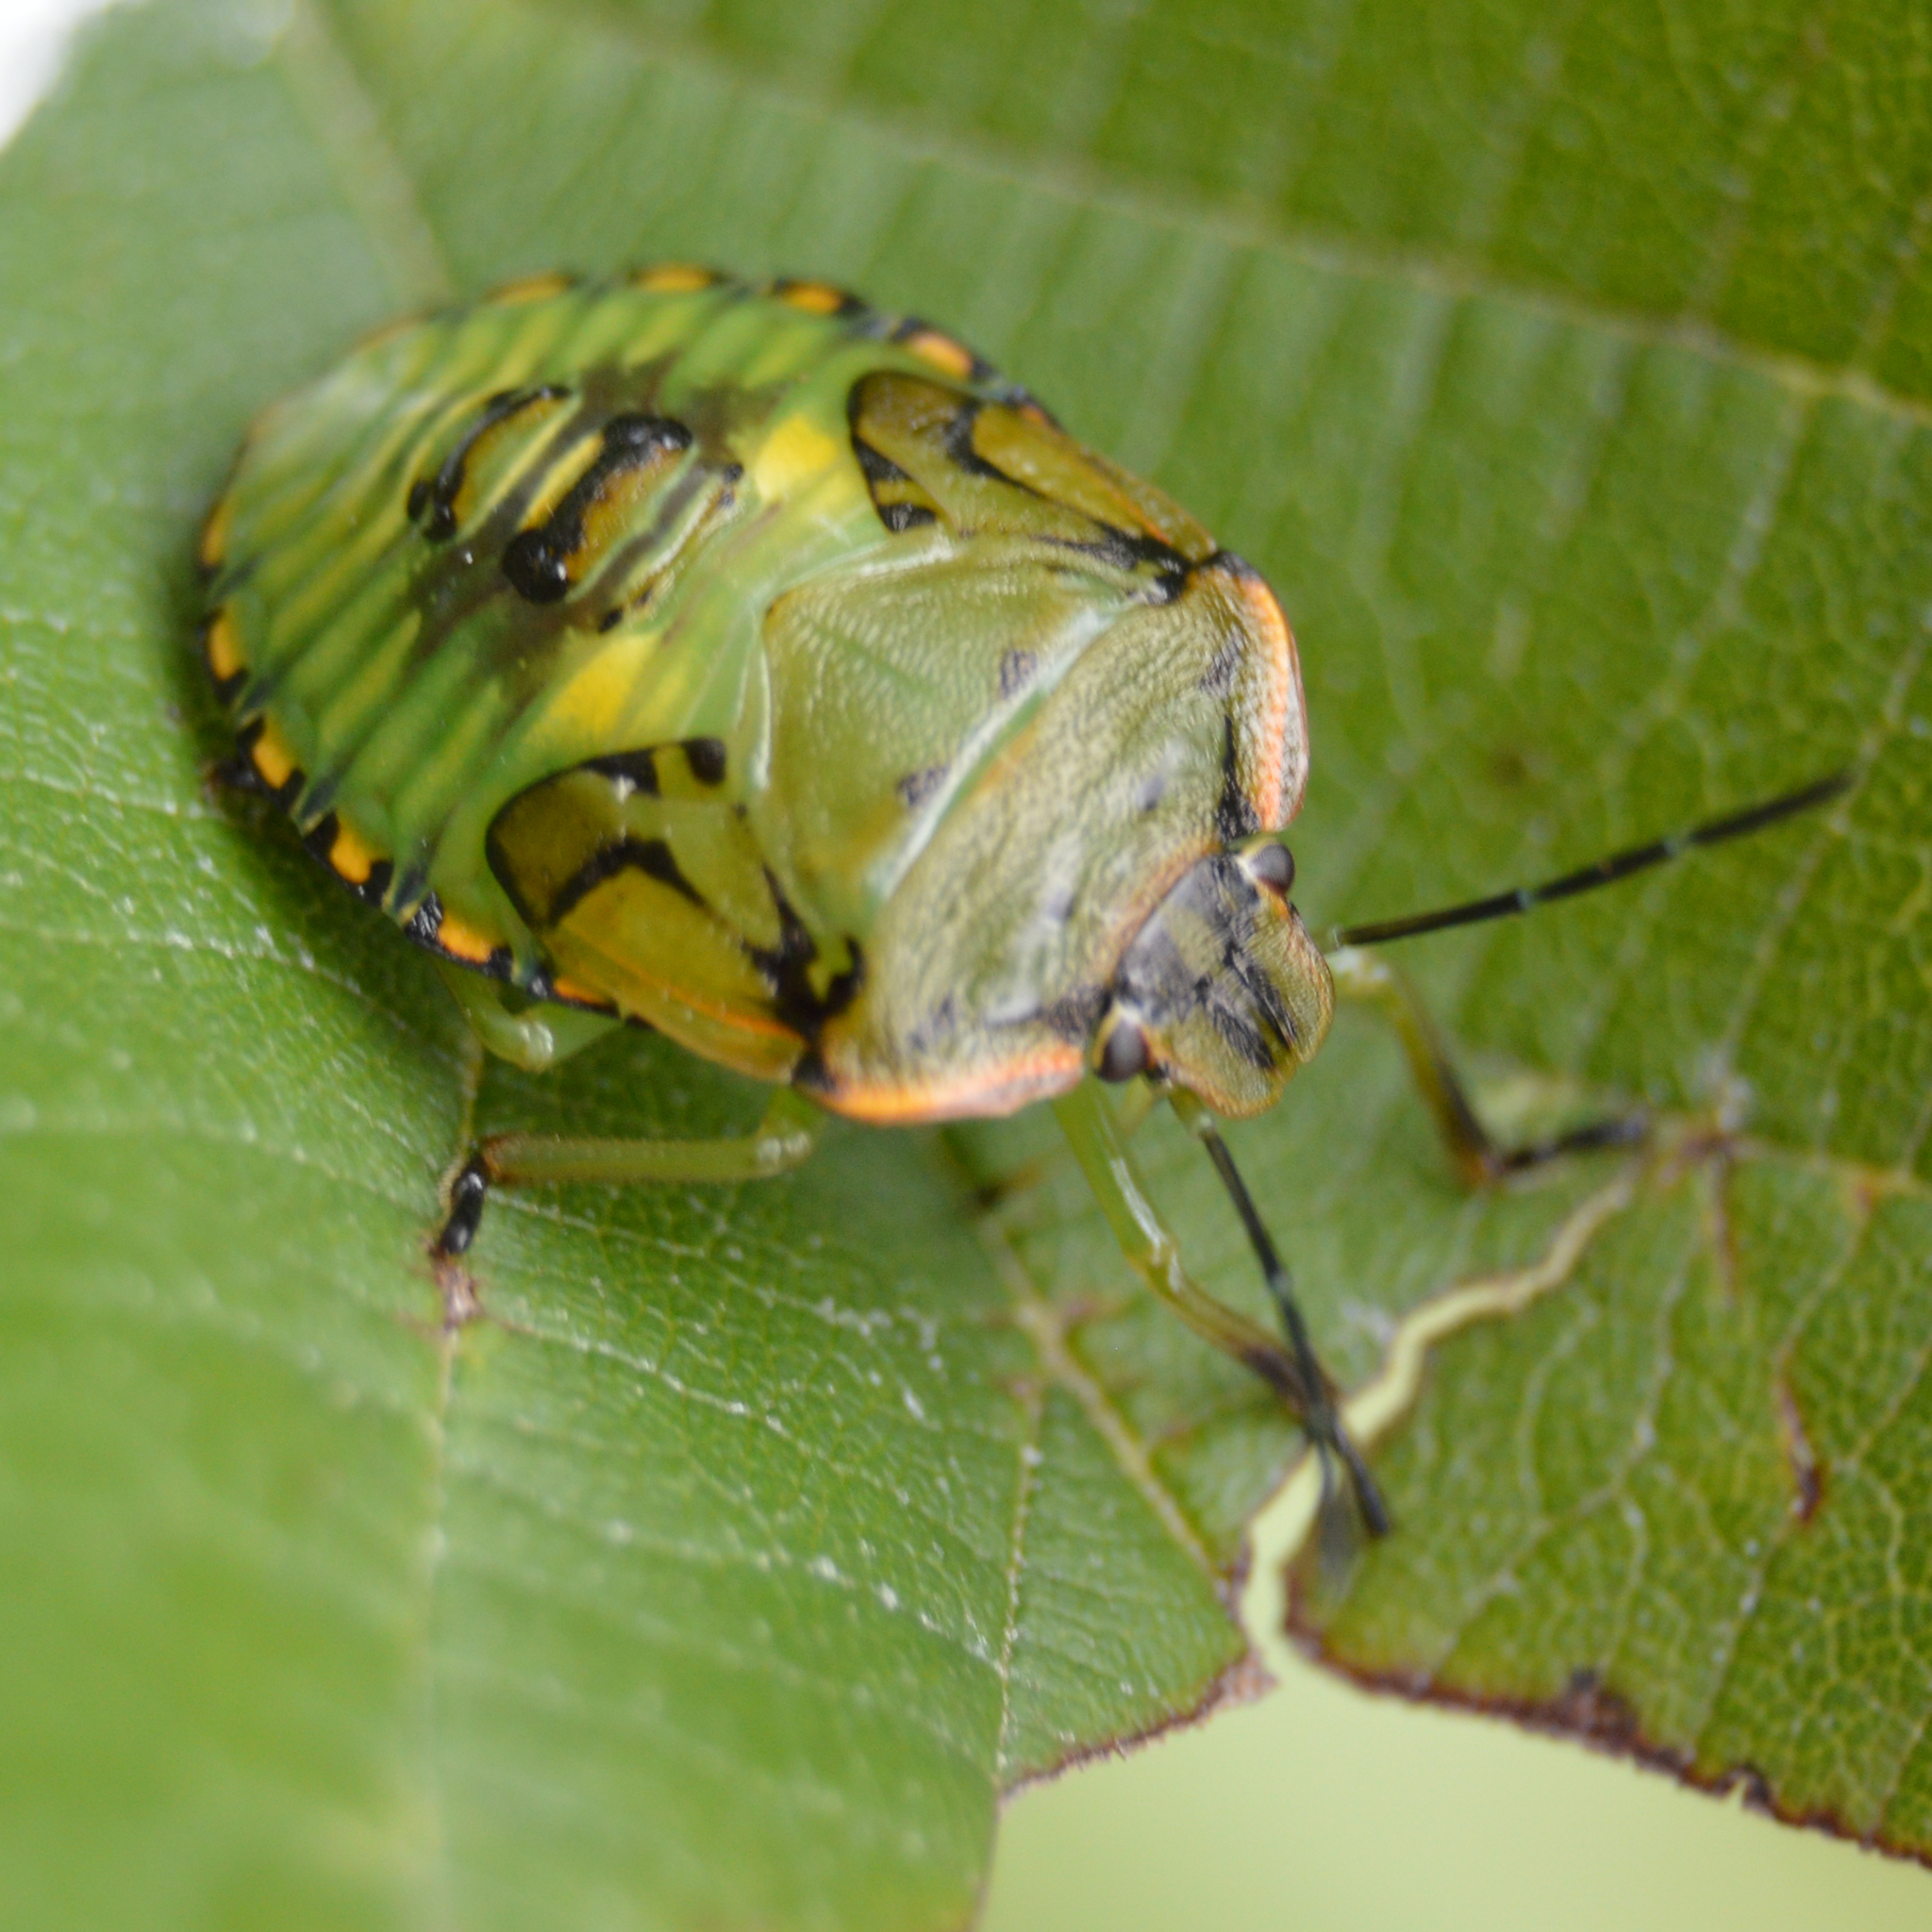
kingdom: Animalia
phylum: Arthropoda
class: Insecta
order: Hemiptera
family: Pentatomidae
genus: Chinavia
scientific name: Chinavia hilaris
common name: Green stink bug
